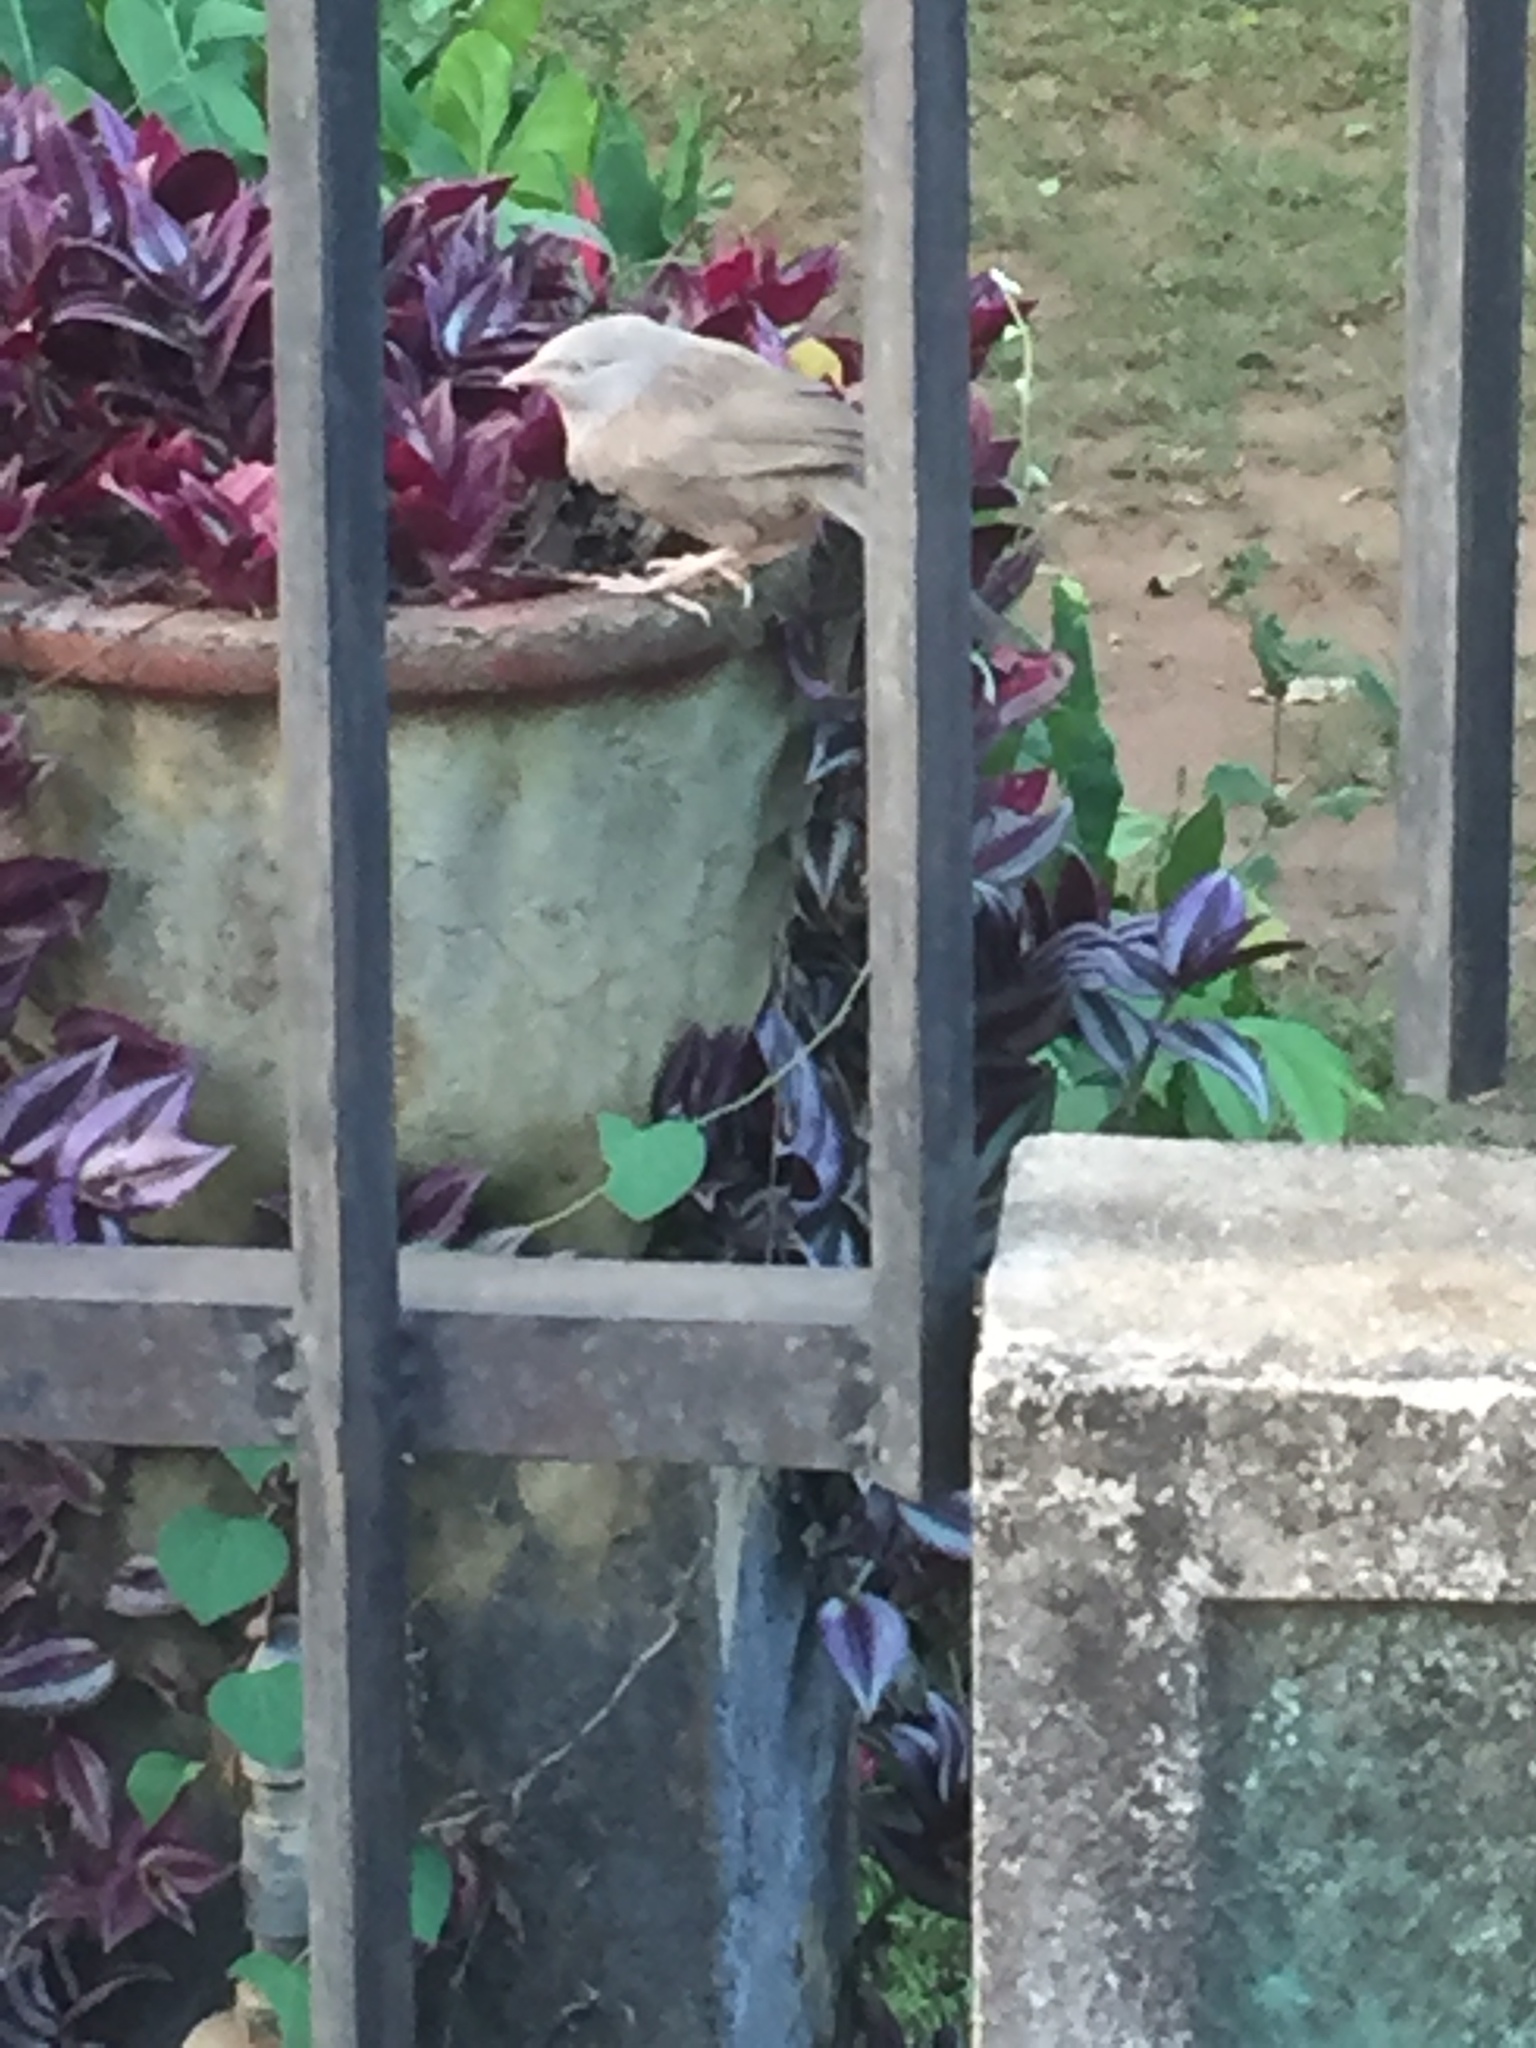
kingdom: Animalia
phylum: Chordata
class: Aves
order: Passeriformes
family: Leiothrichidae
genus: Turdoides
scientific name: Turdoides affinis
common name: Yellow-billed babbler
